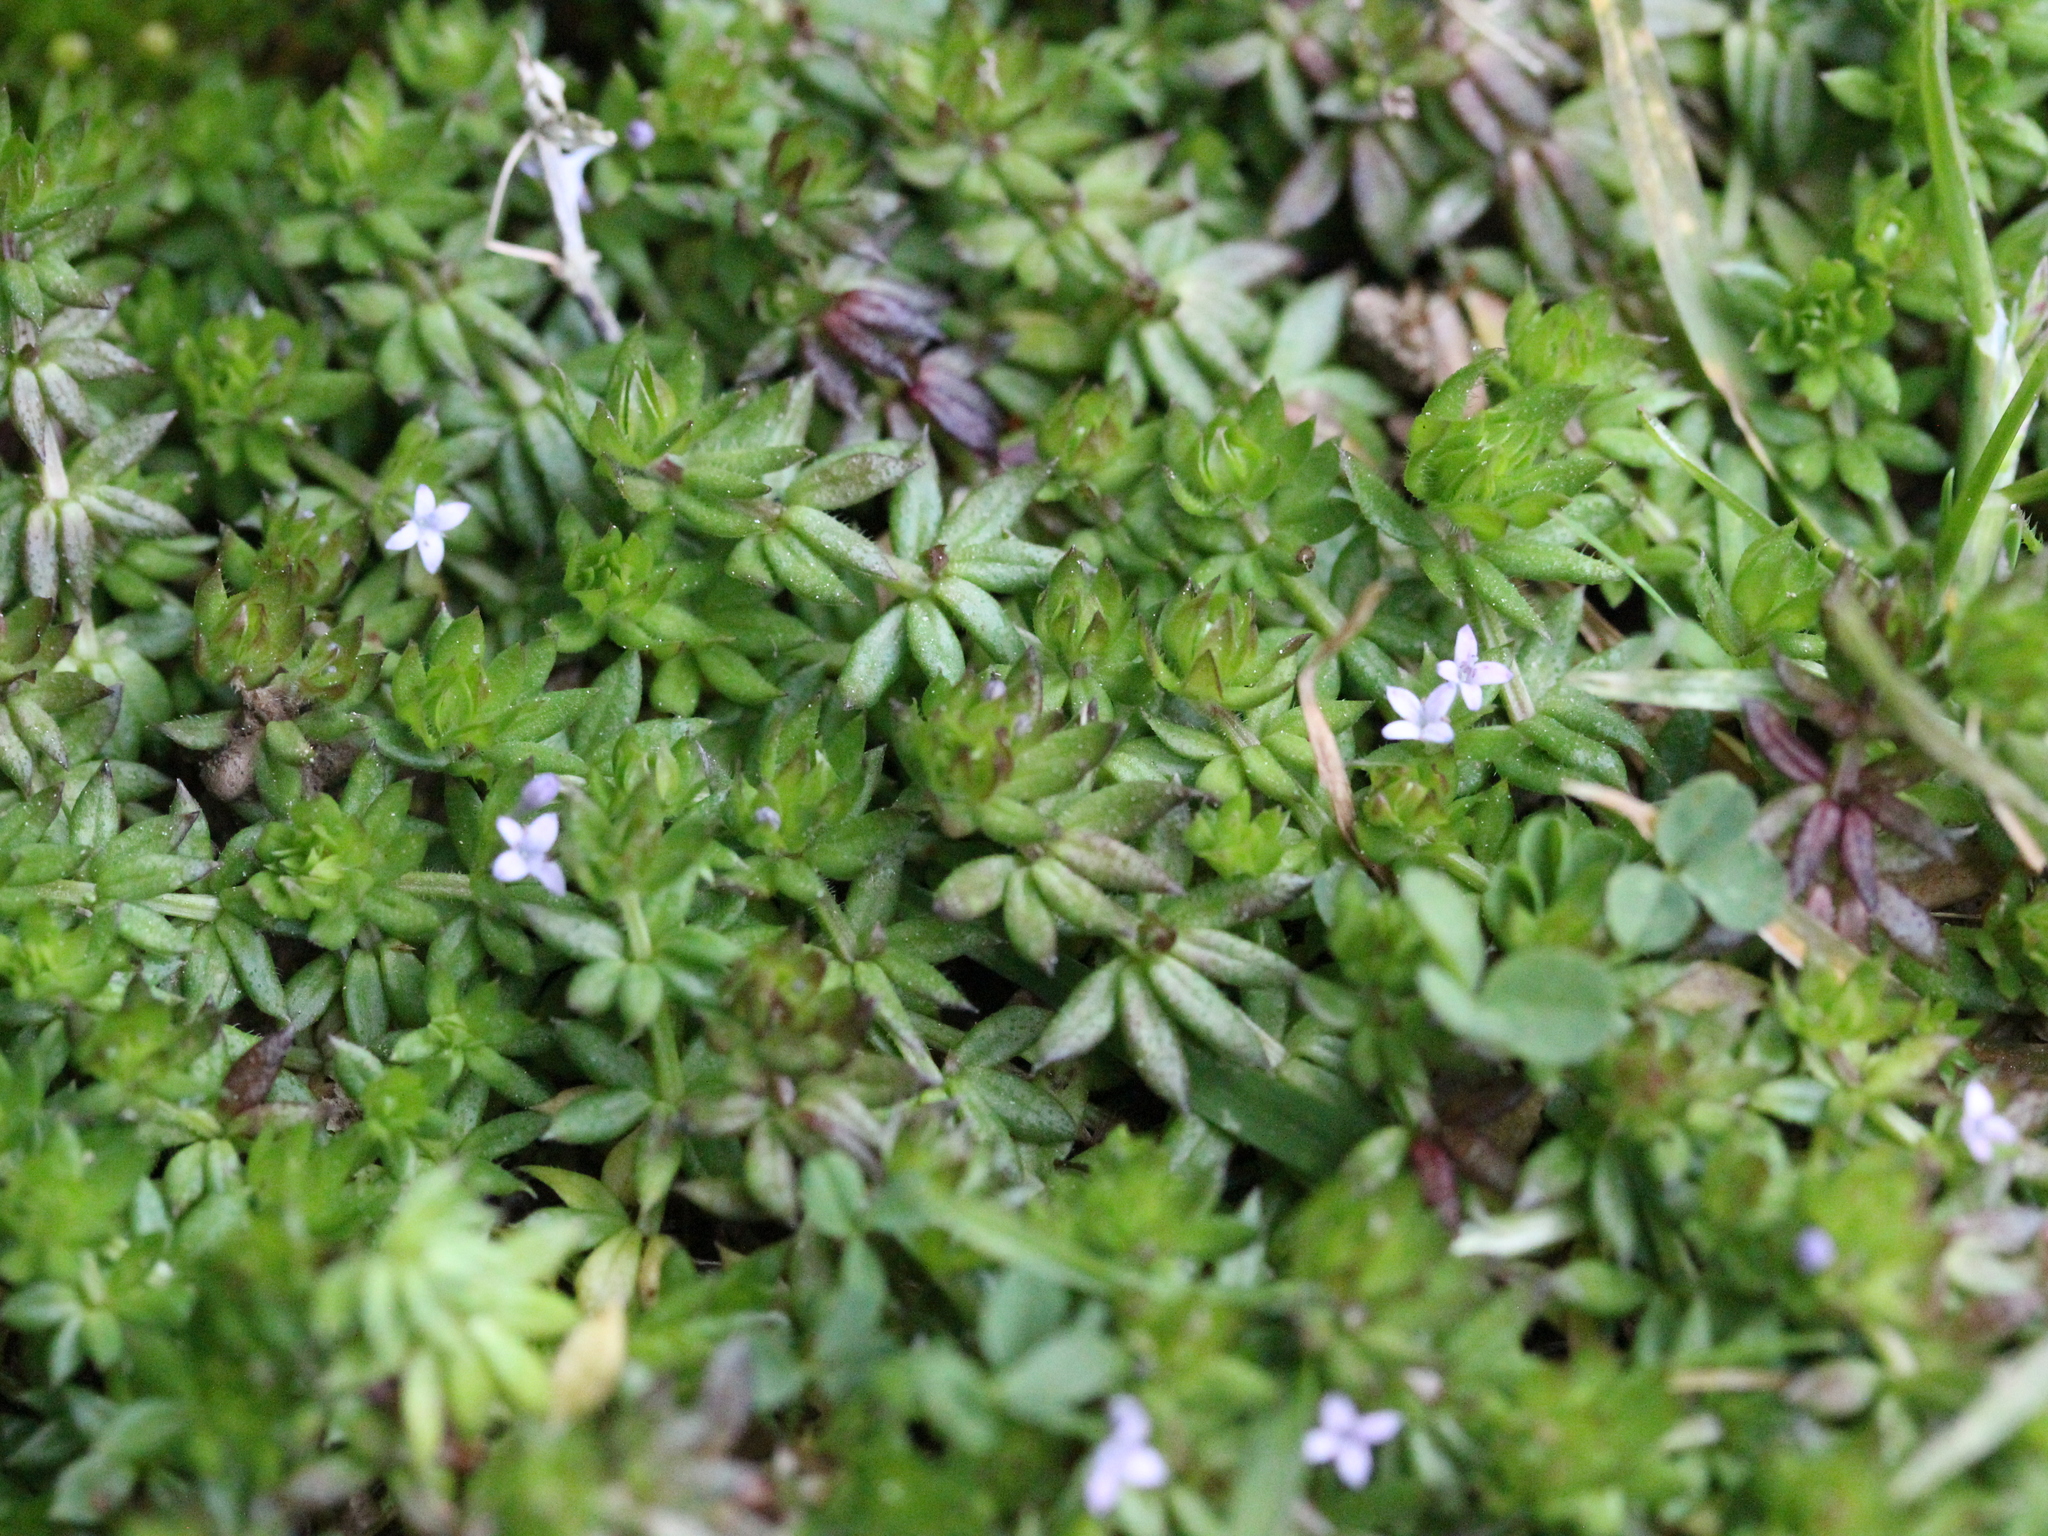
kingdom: Plantae
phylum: Tracheophyta
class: Magnoliopsida
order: Gentianales
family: Rubiaceae
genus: Sherardia
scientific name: Sherardia arvensis
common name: Field madder
